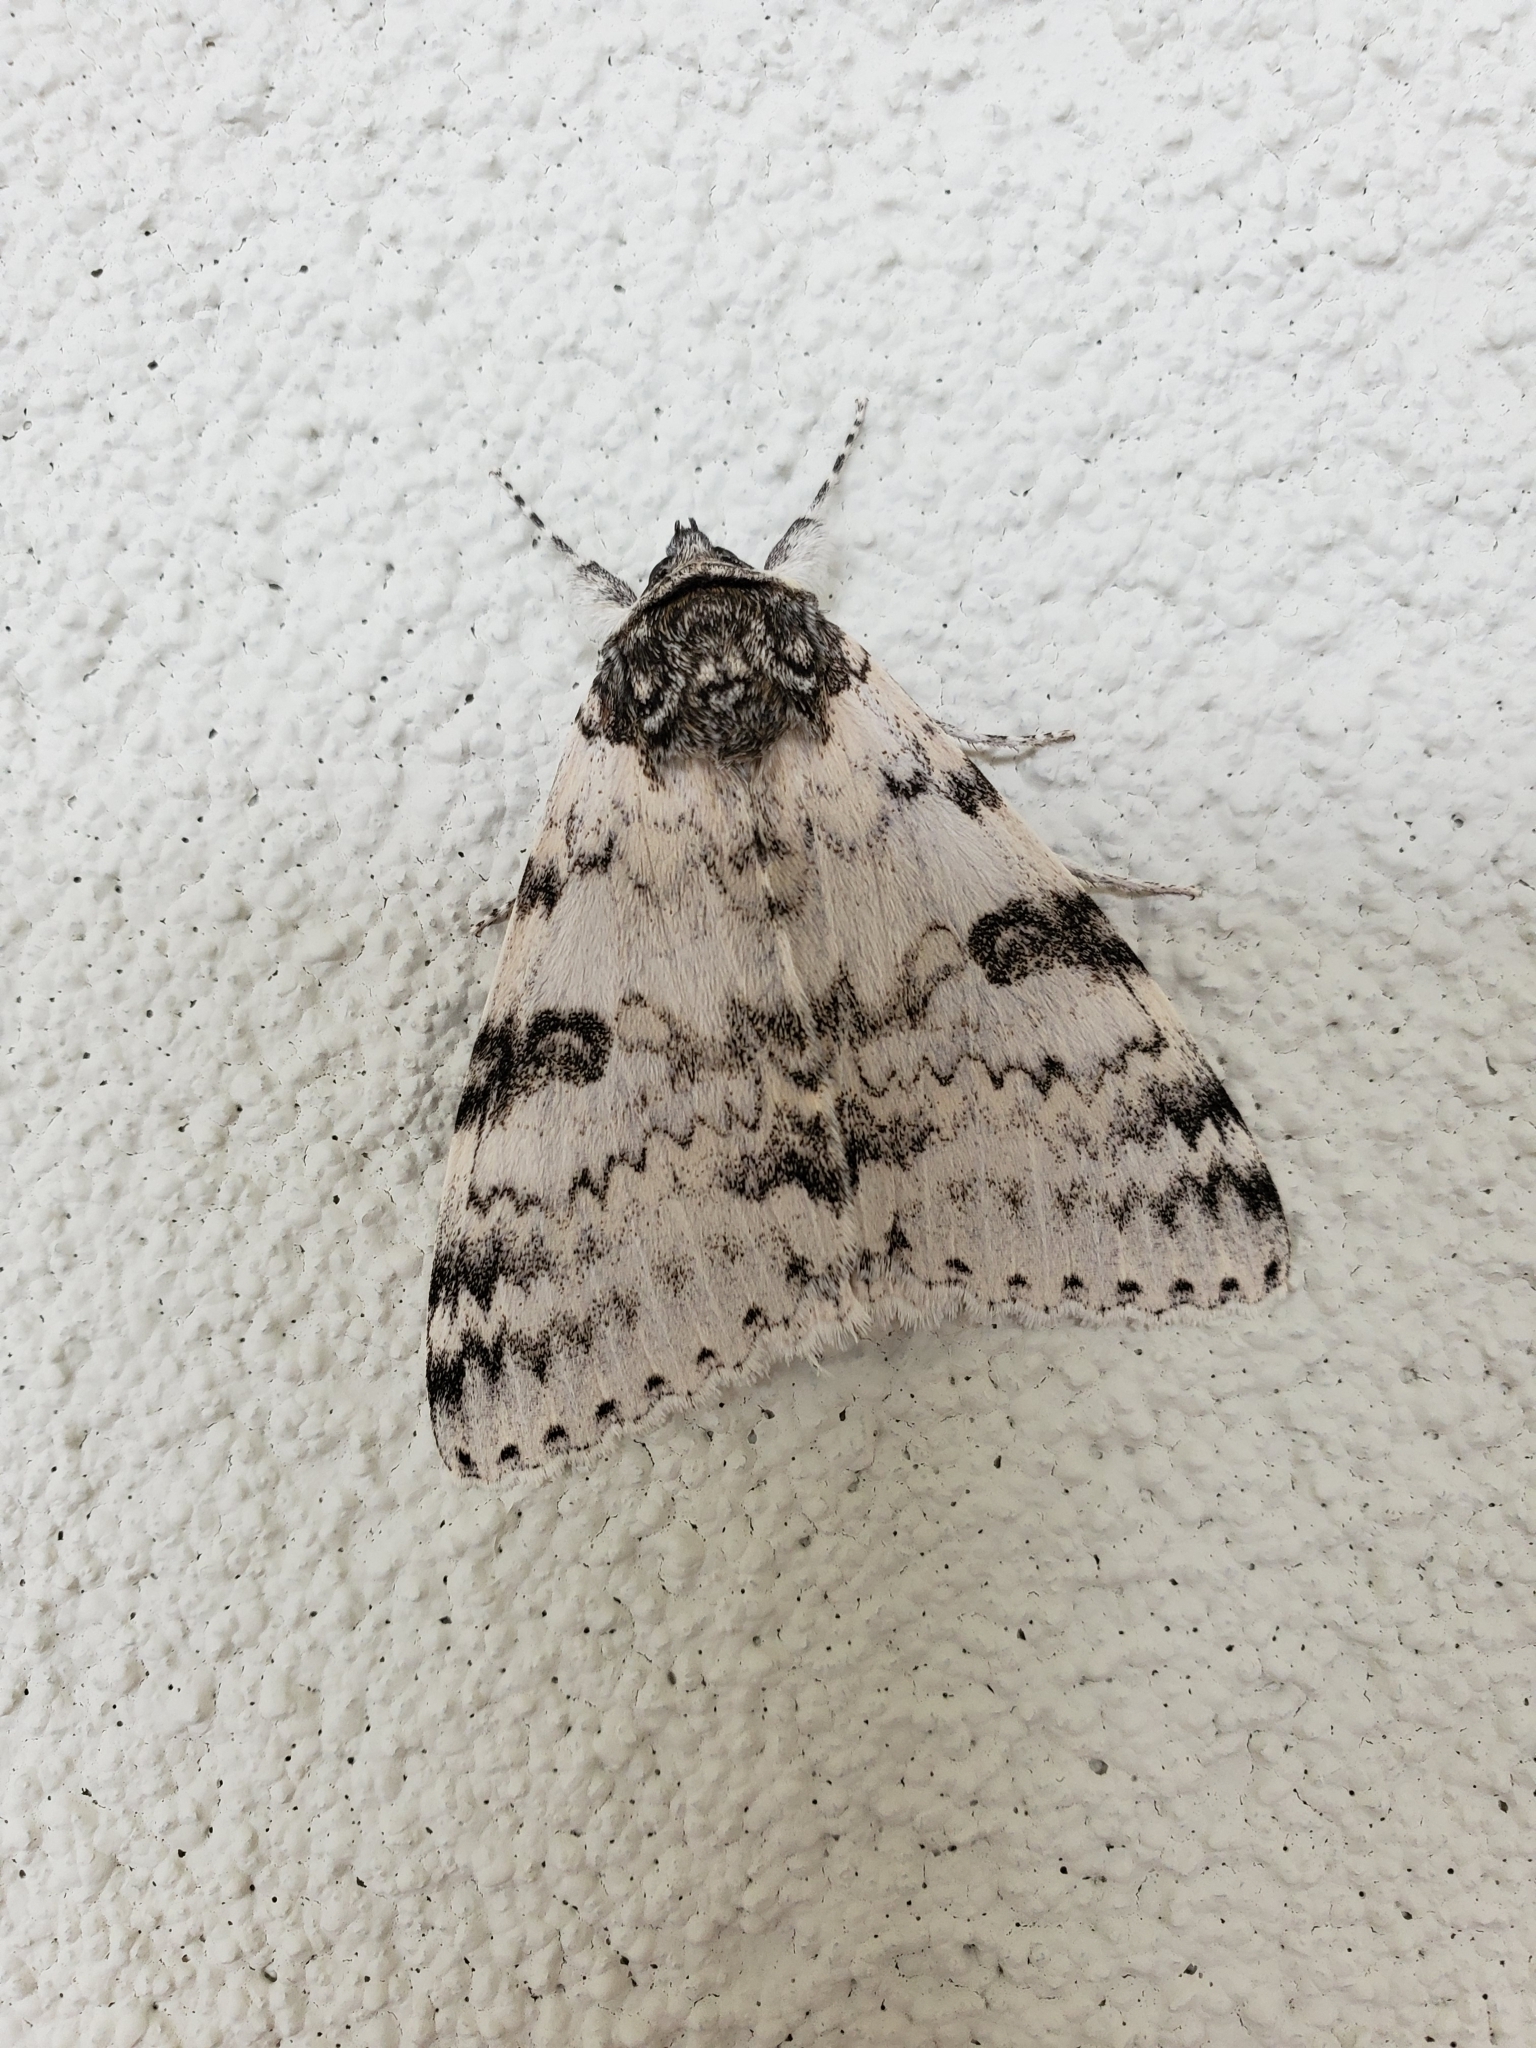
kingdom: Animalia
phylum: Arthropoda
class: Insecta
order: Lepidoptera
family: Erebidae
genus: Catocala
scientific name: Catocala relicta
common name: White underwing
